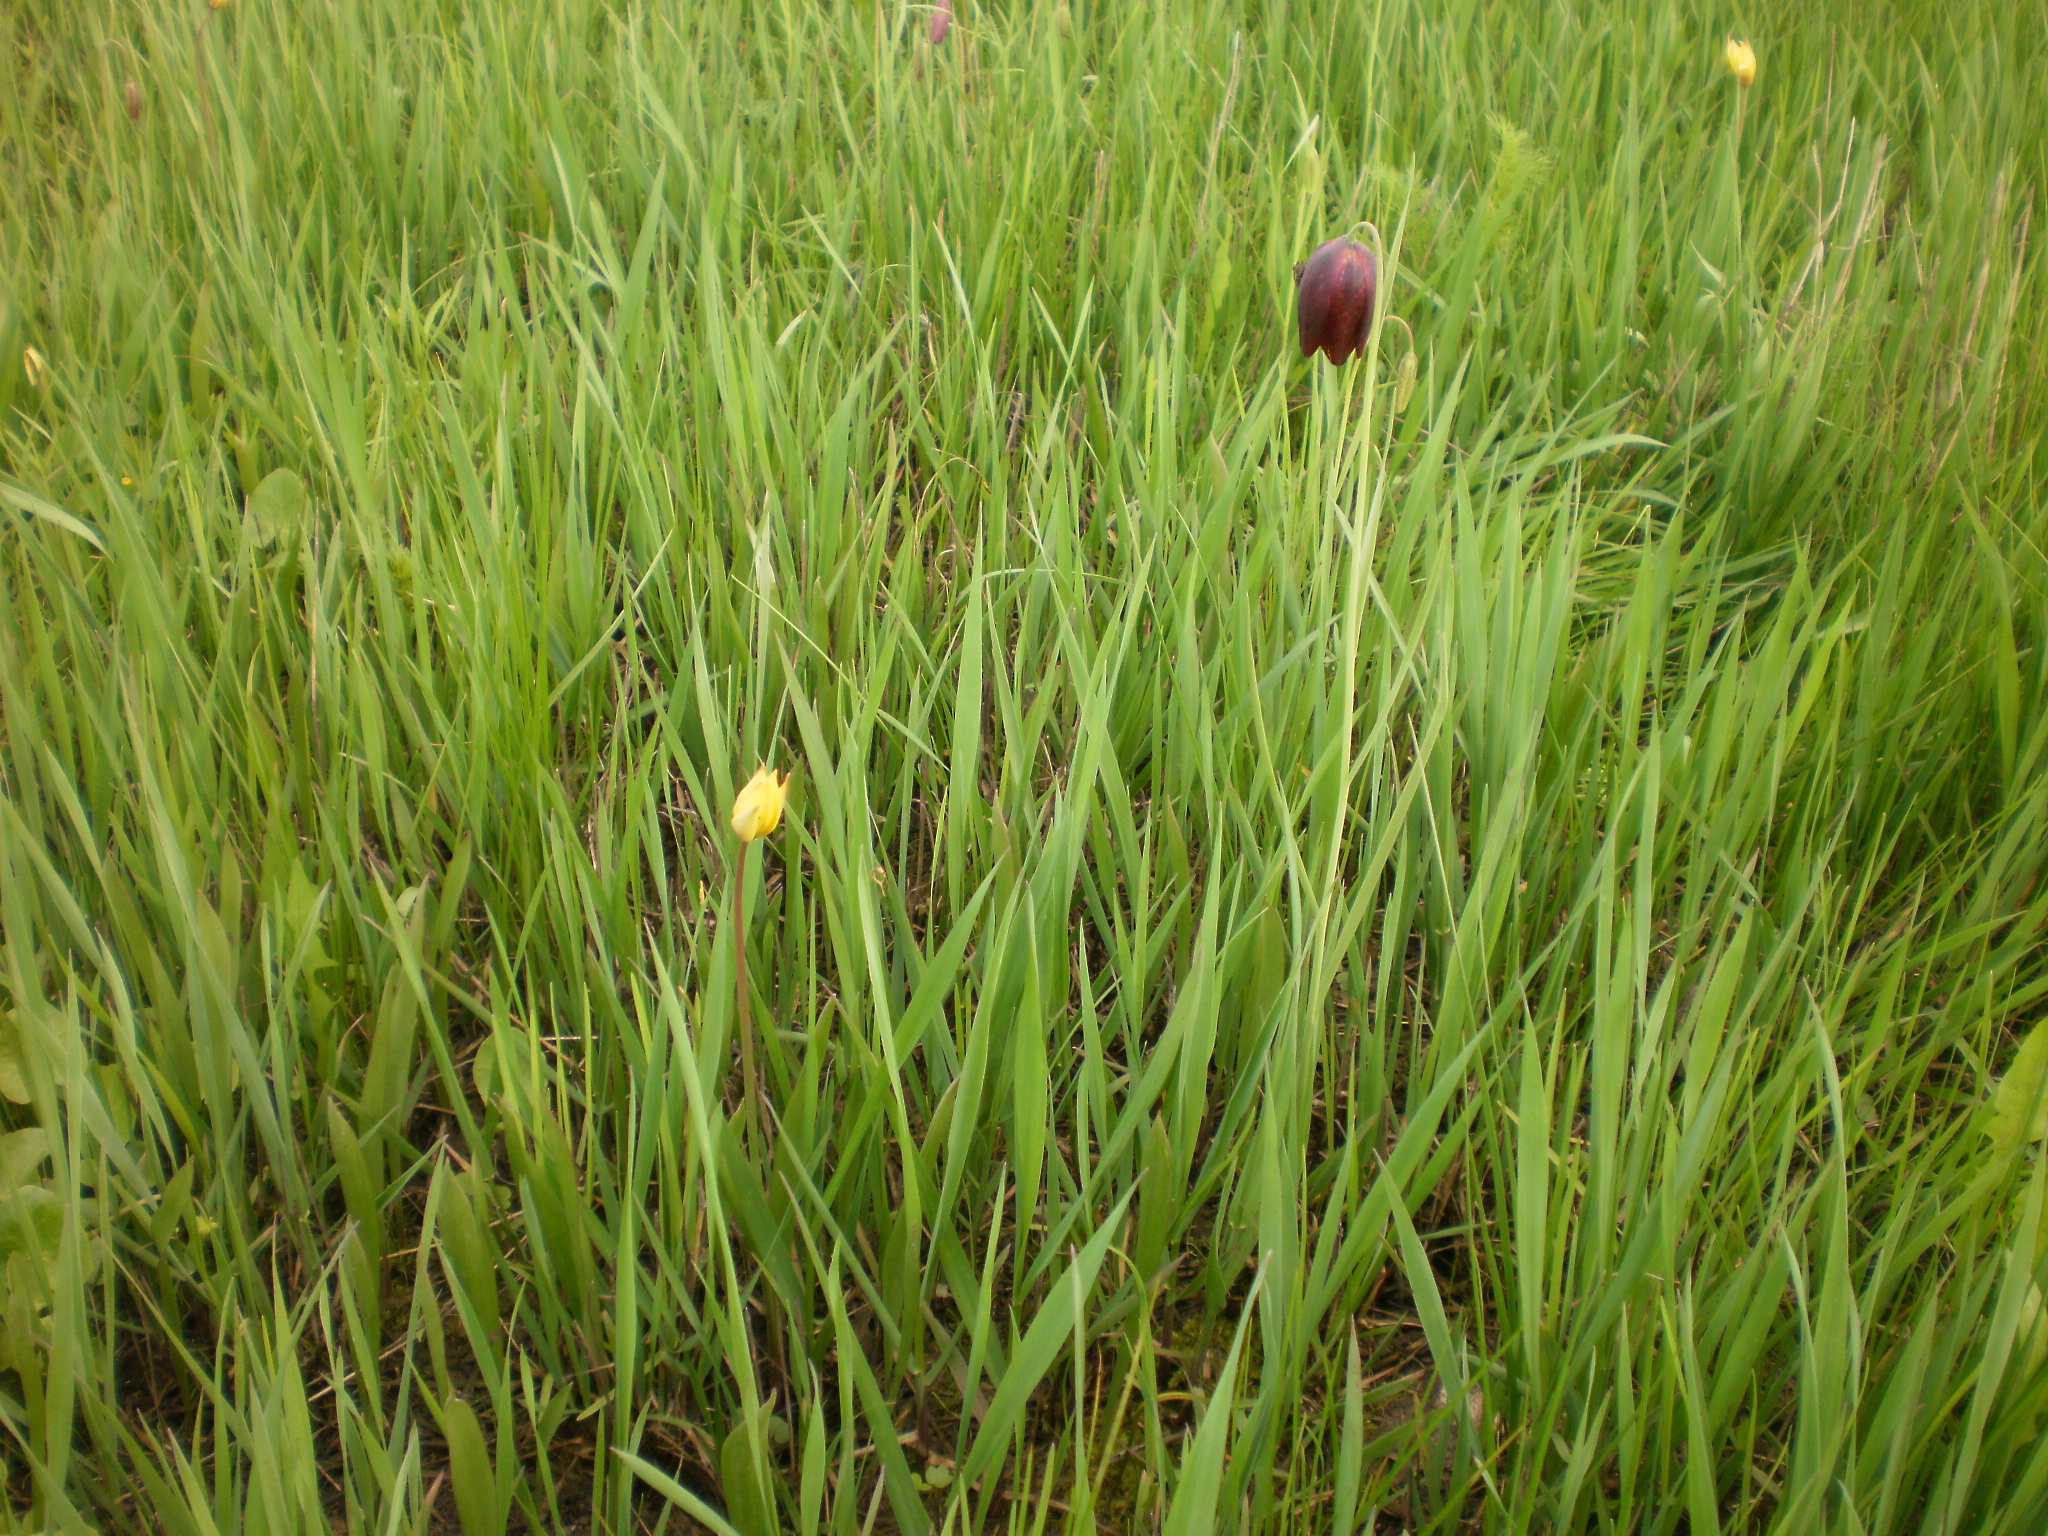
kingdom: Plantae
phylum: Tracheophyta
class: Liliopsida
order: Liliales
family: Liliaceae
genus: Fritillaria
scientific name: Fritillaria meleagroides
